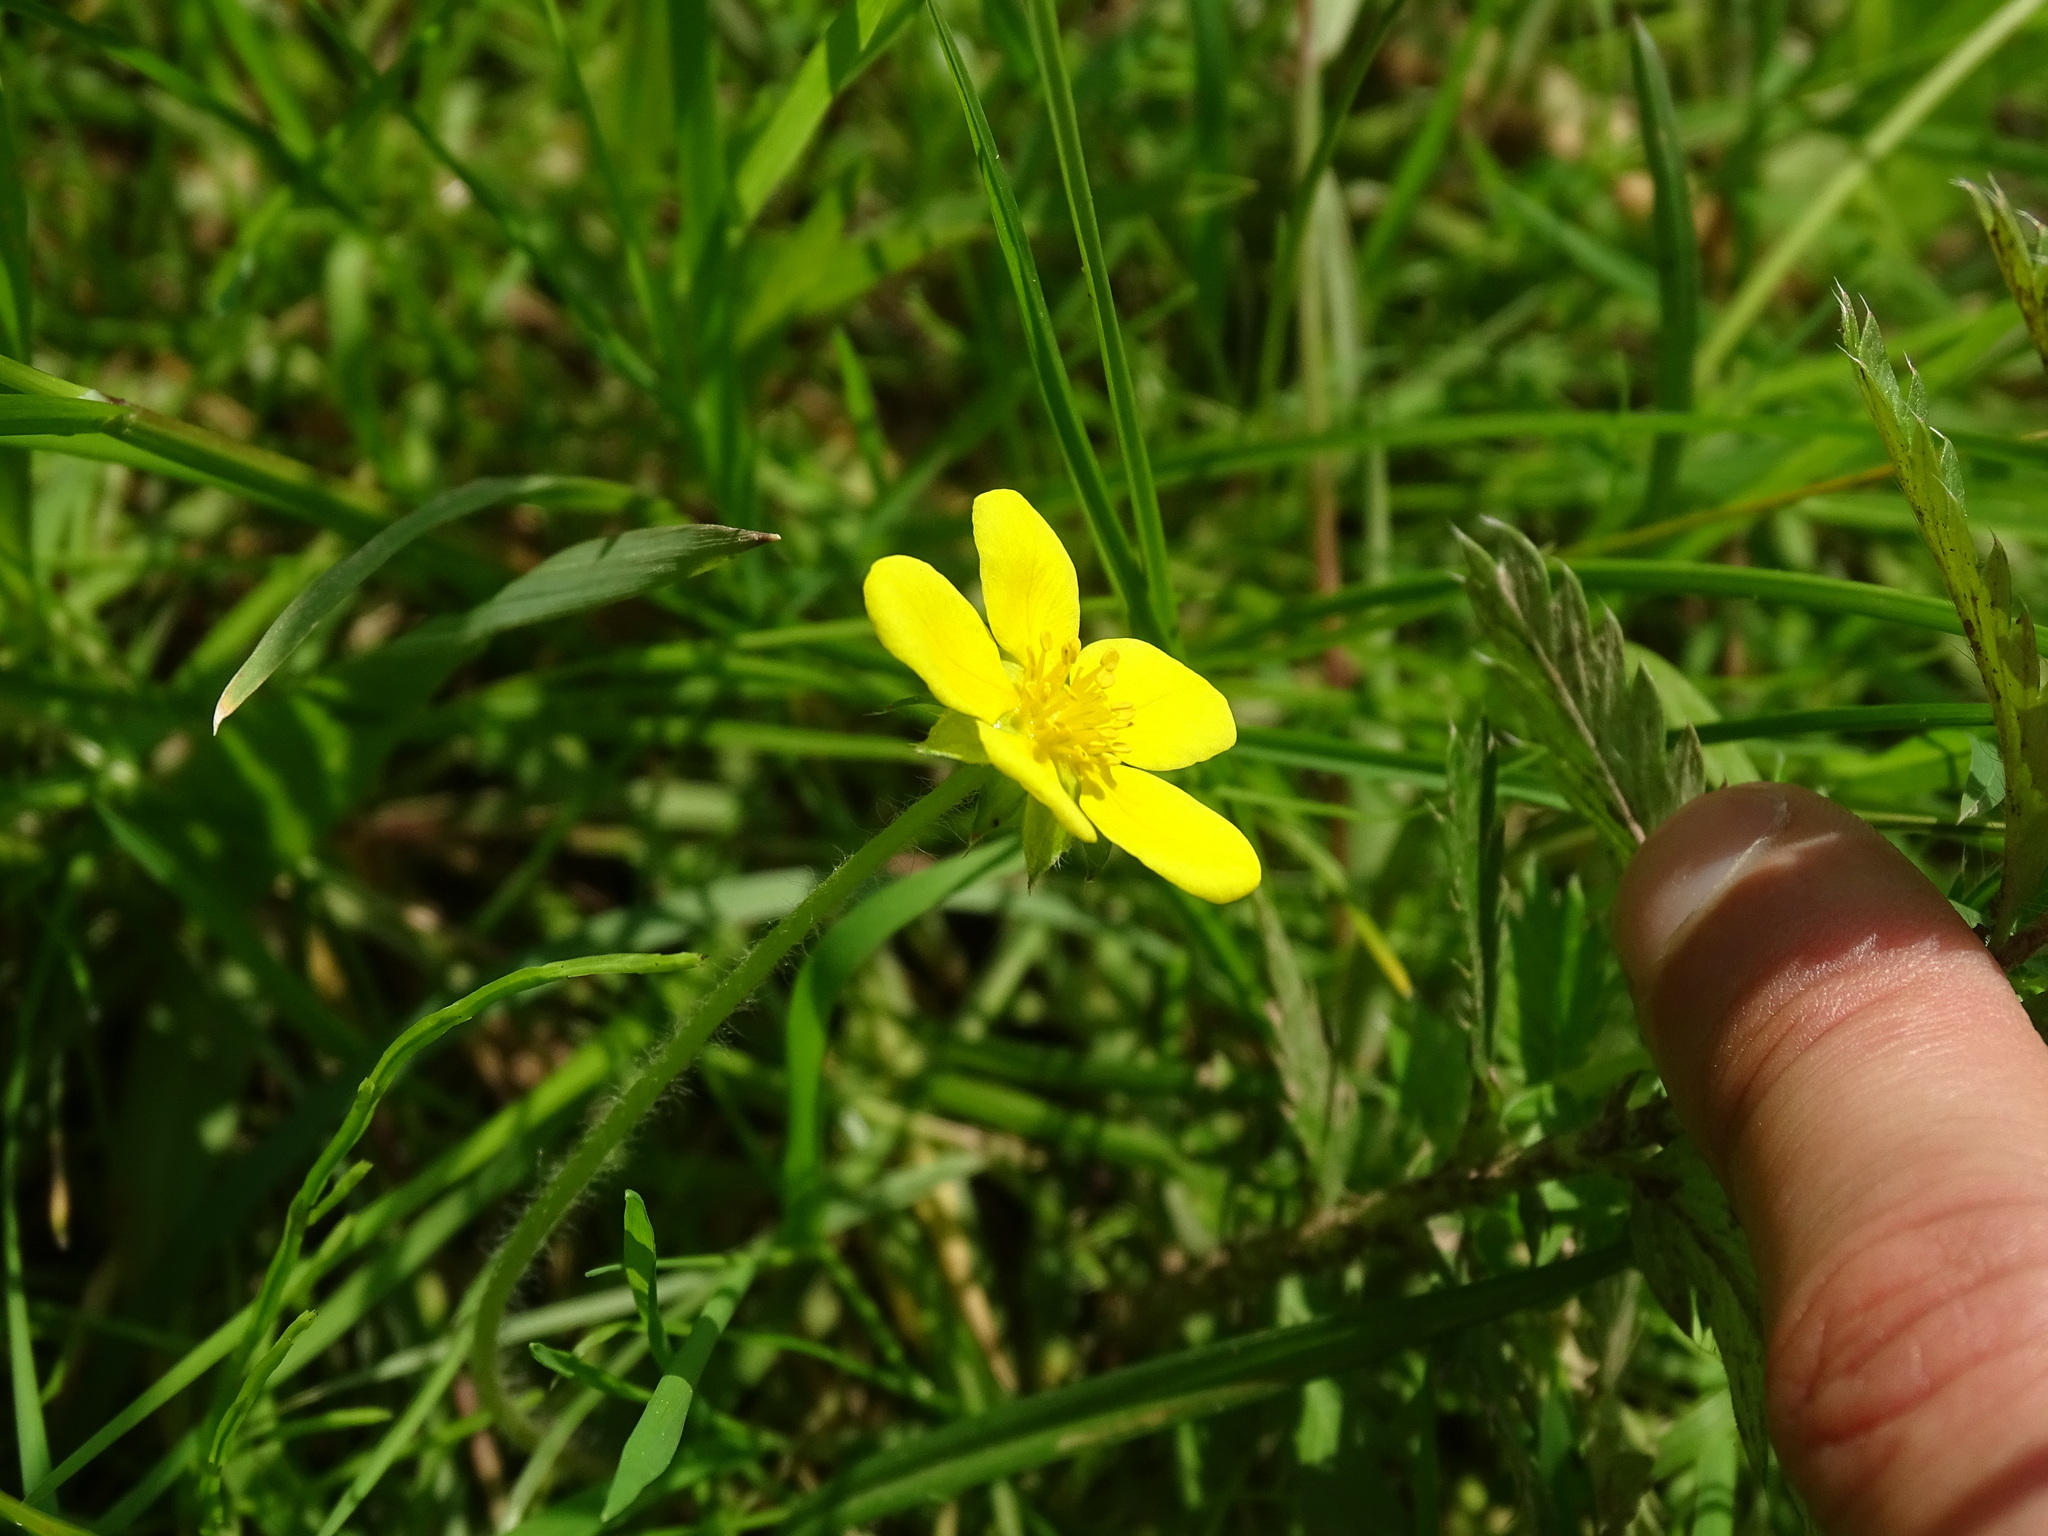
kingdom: Plantae
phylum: Tracheophyta
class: Magnoliopsida
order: Rosales
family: Rosaceae
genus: Argentina
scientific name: Argentina anserina
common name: Common silverweed
